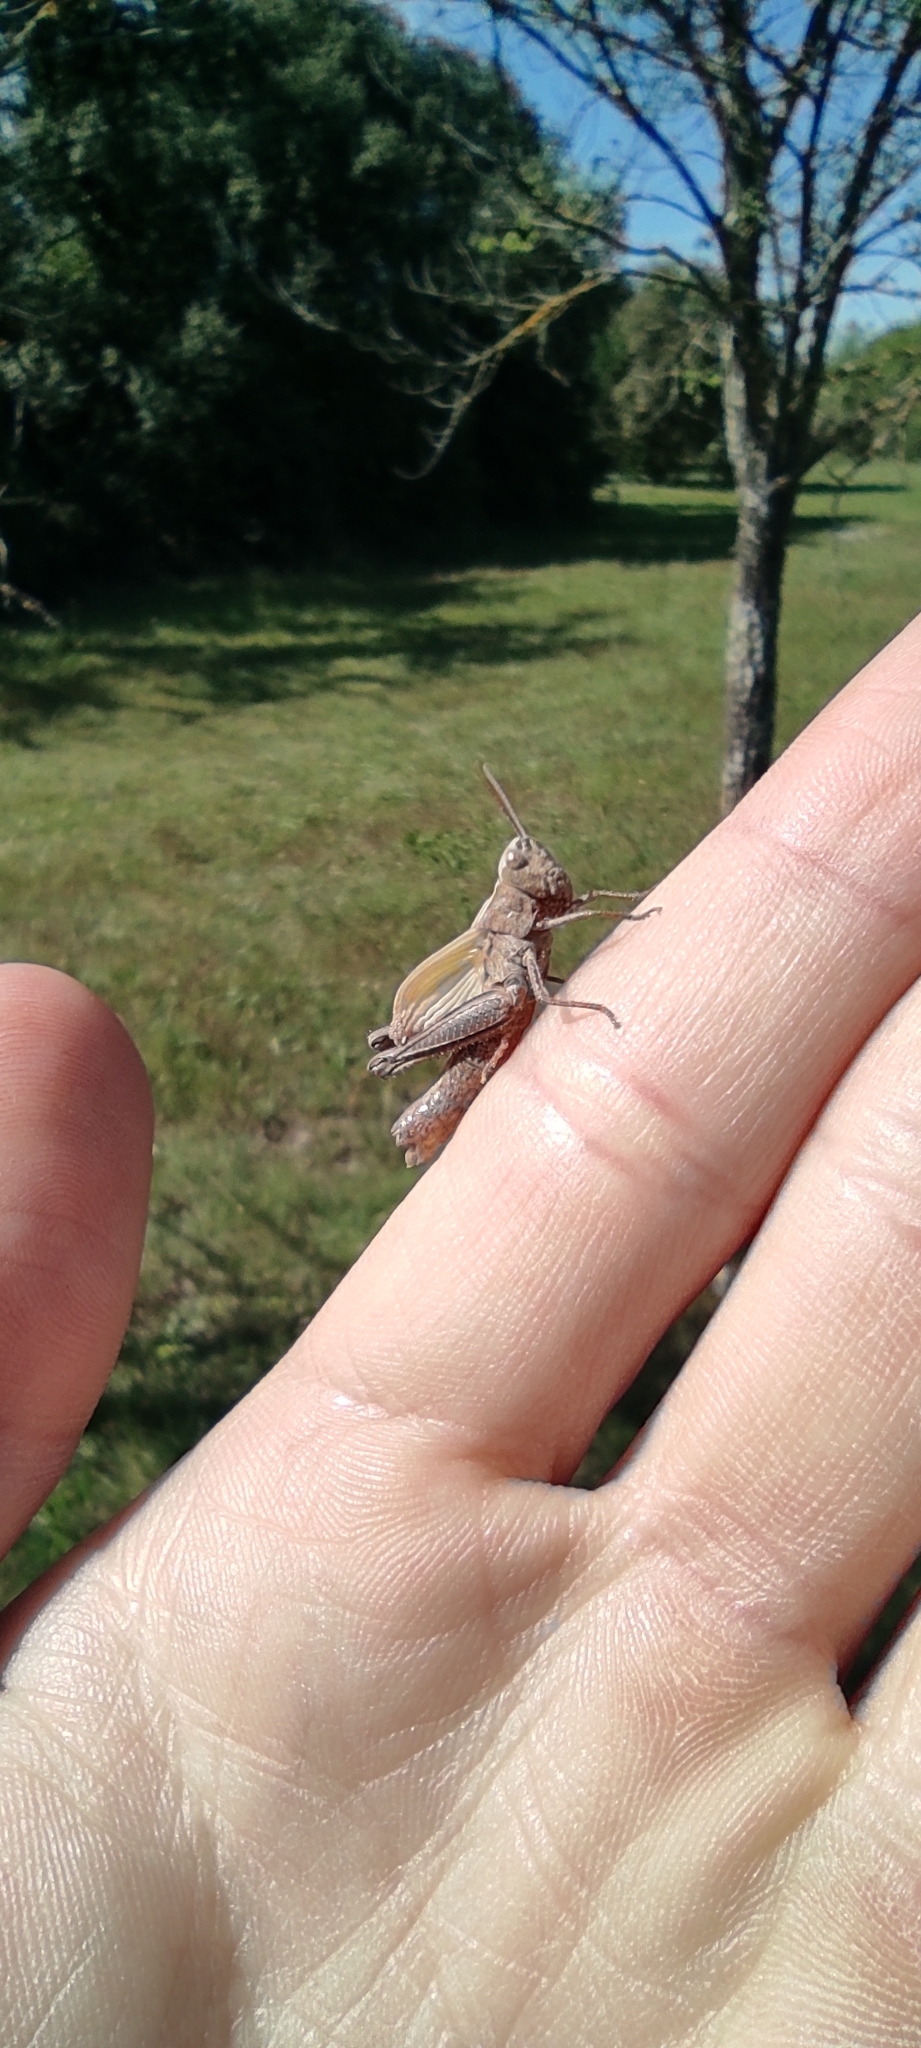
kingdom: Animalia
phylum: Arthropoda
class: Insecta
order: Orthoptera
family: Acrididae
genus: Omocestus
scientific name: Omocestus rufipes
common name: Woodland grasshopper
